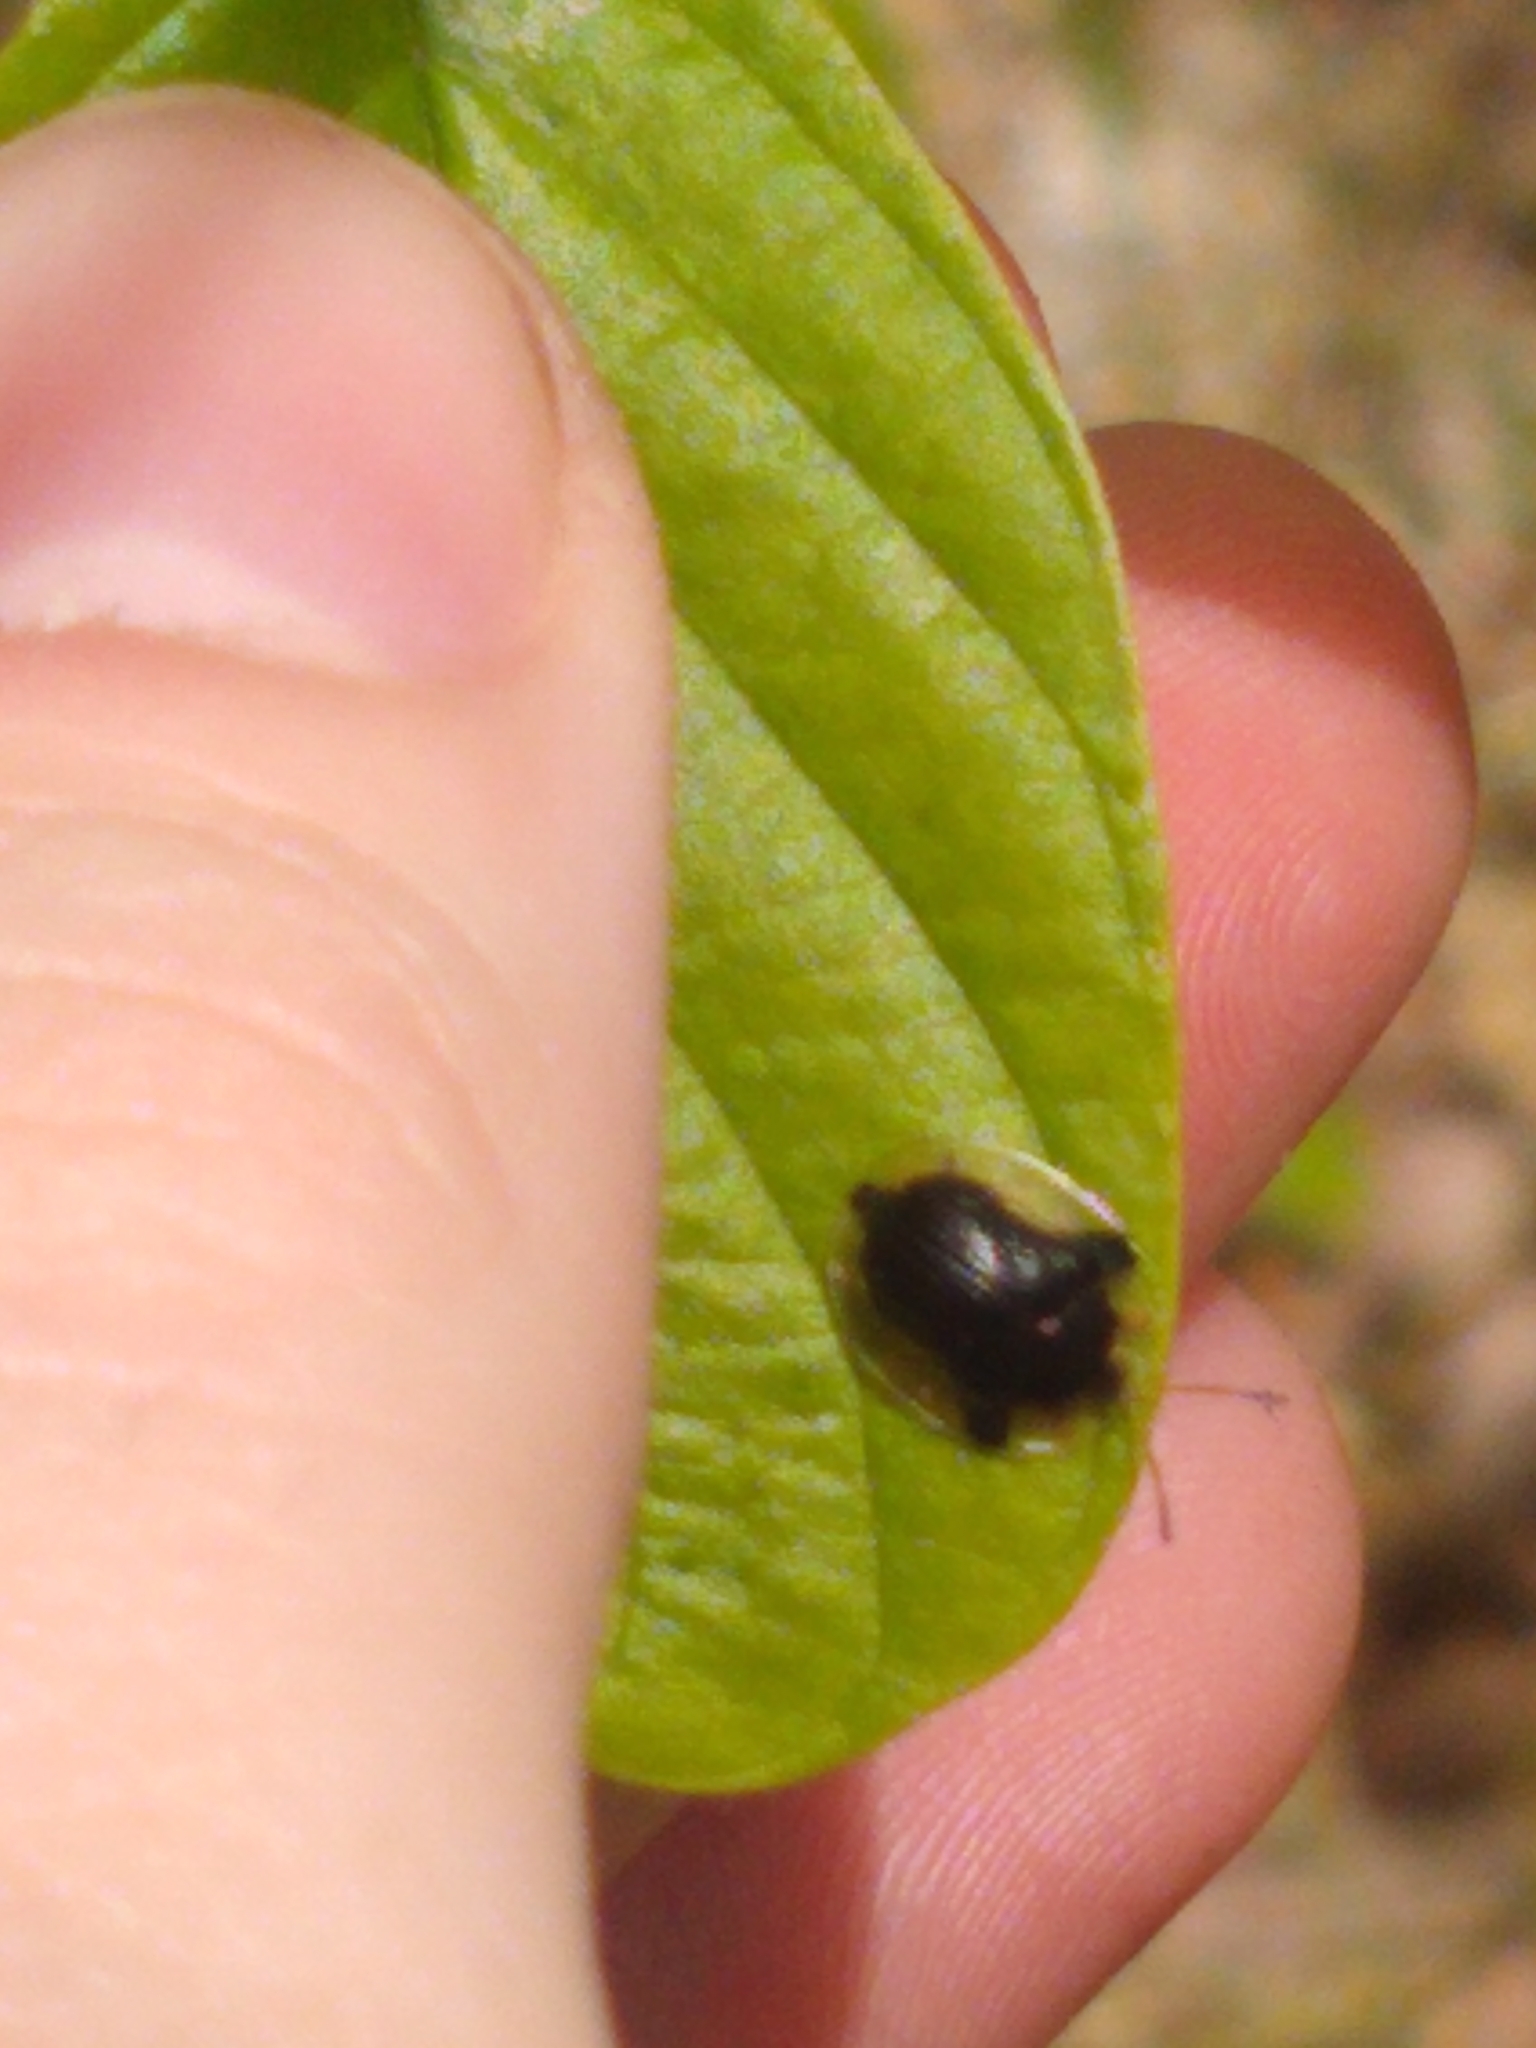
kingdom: Animalia
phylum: Arthropoda
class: Insecta
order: Coleoptera
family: Chrysomelidae
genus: Deloyala
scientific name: Deloyala guttata
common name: Mottled tortoise beetle
